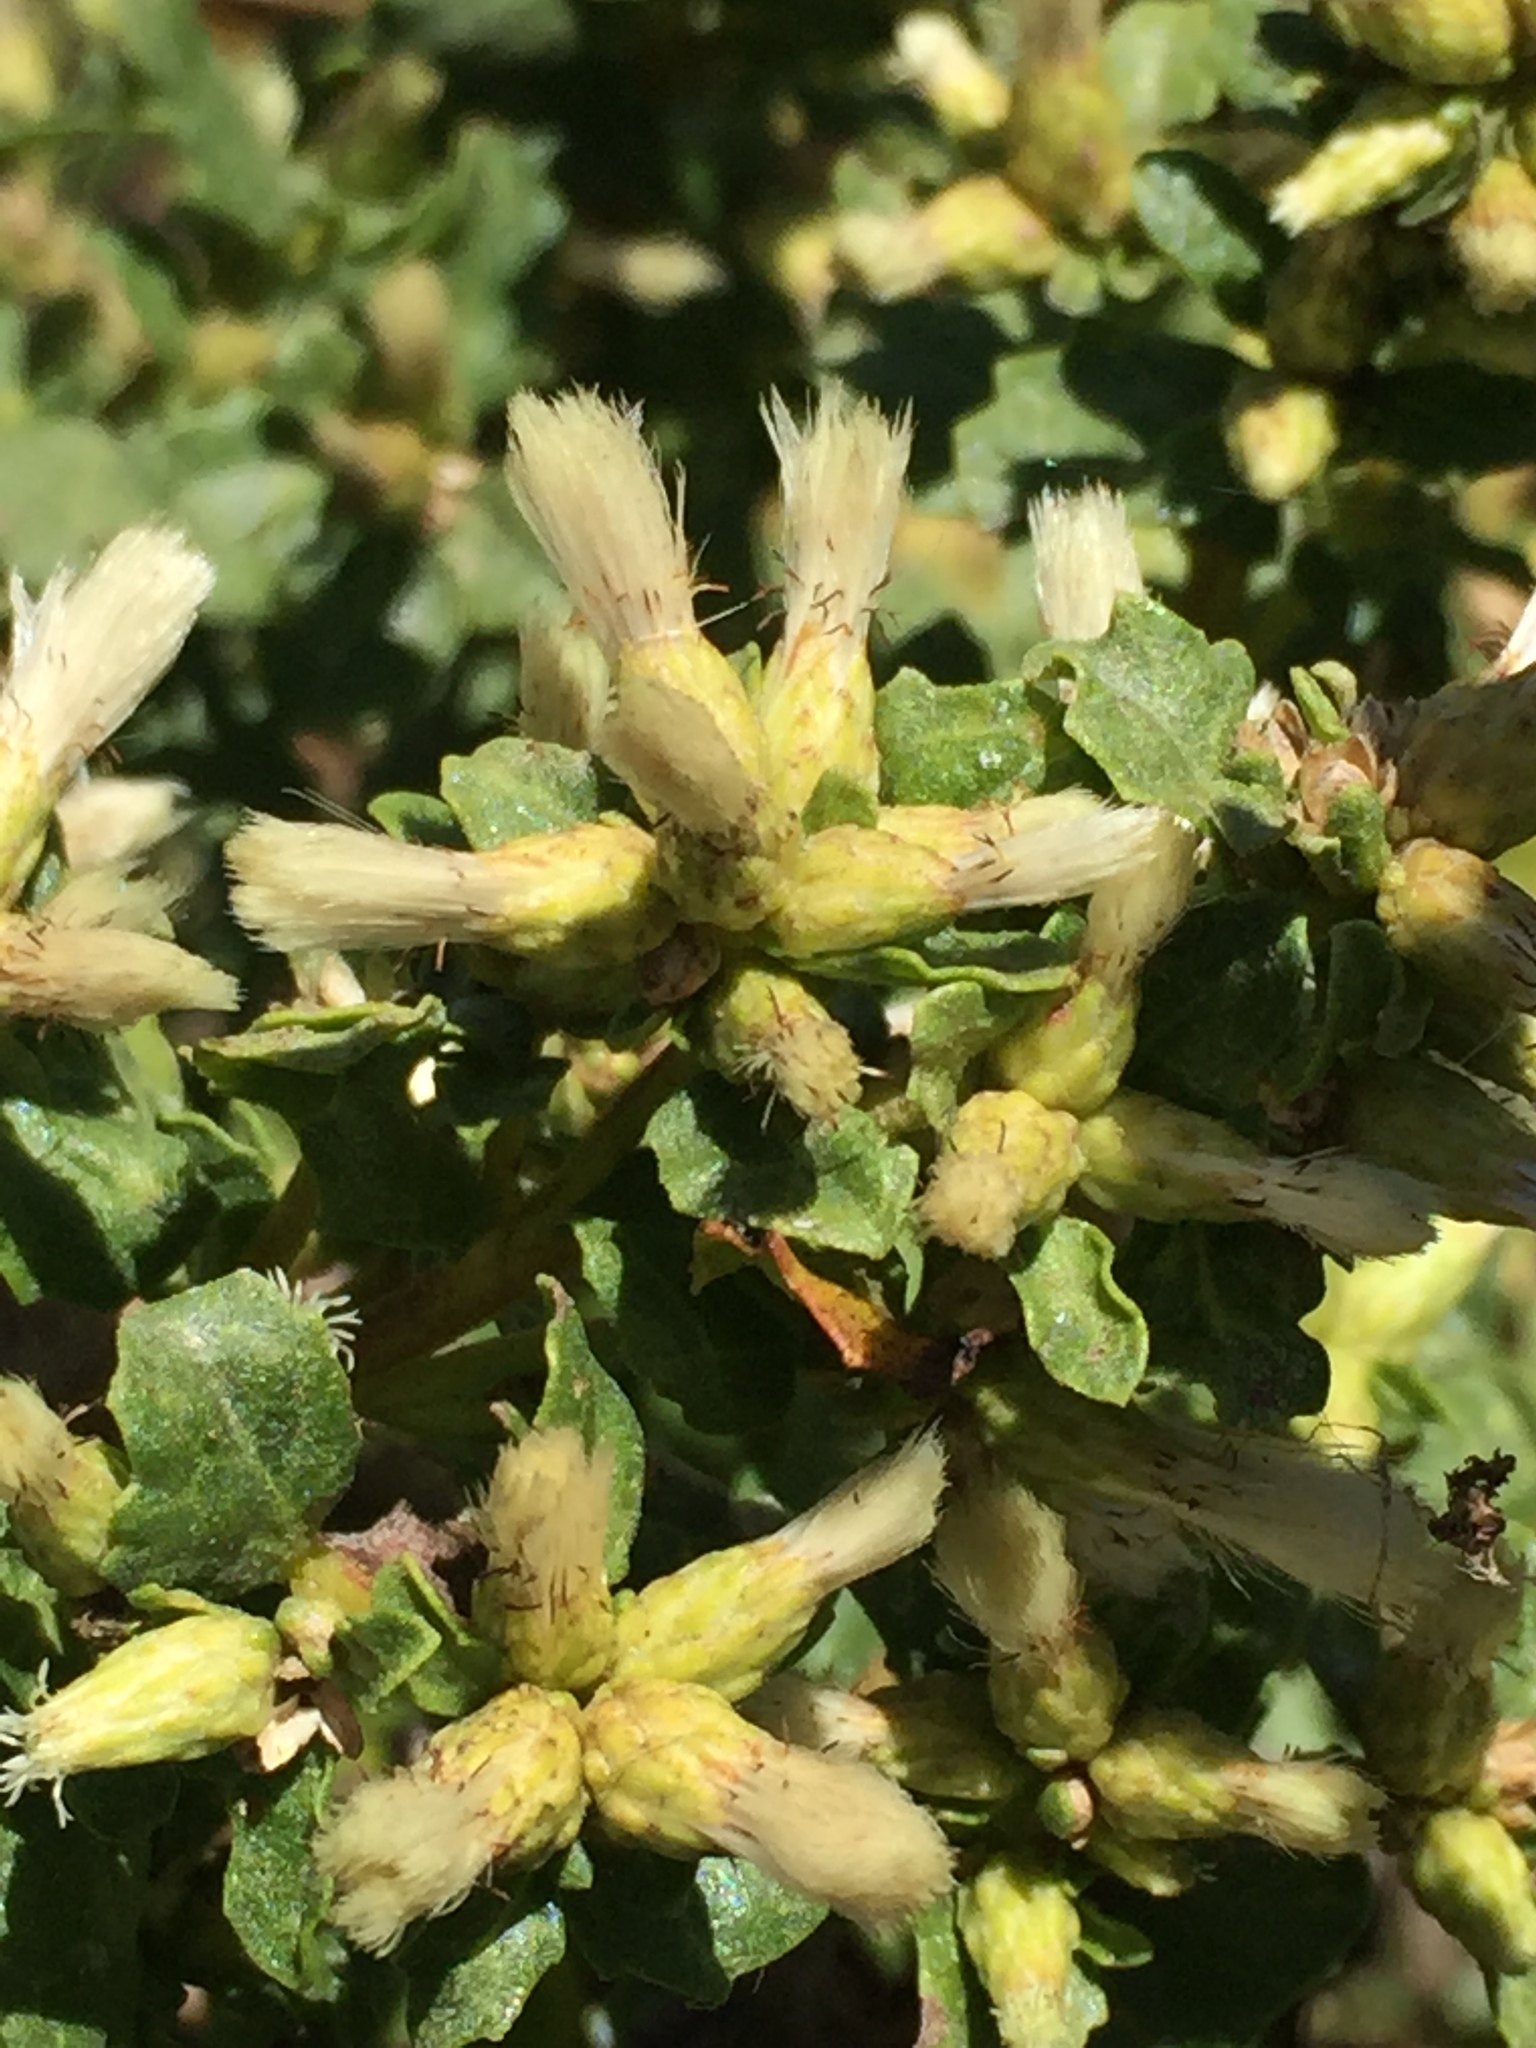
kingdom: Plantae
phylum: Tracheophyta
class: Magnoliopsida
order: Asterales
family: Asteraceae
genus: Baccharis
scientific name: Baccharis pilularis
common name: Coyotebrush
